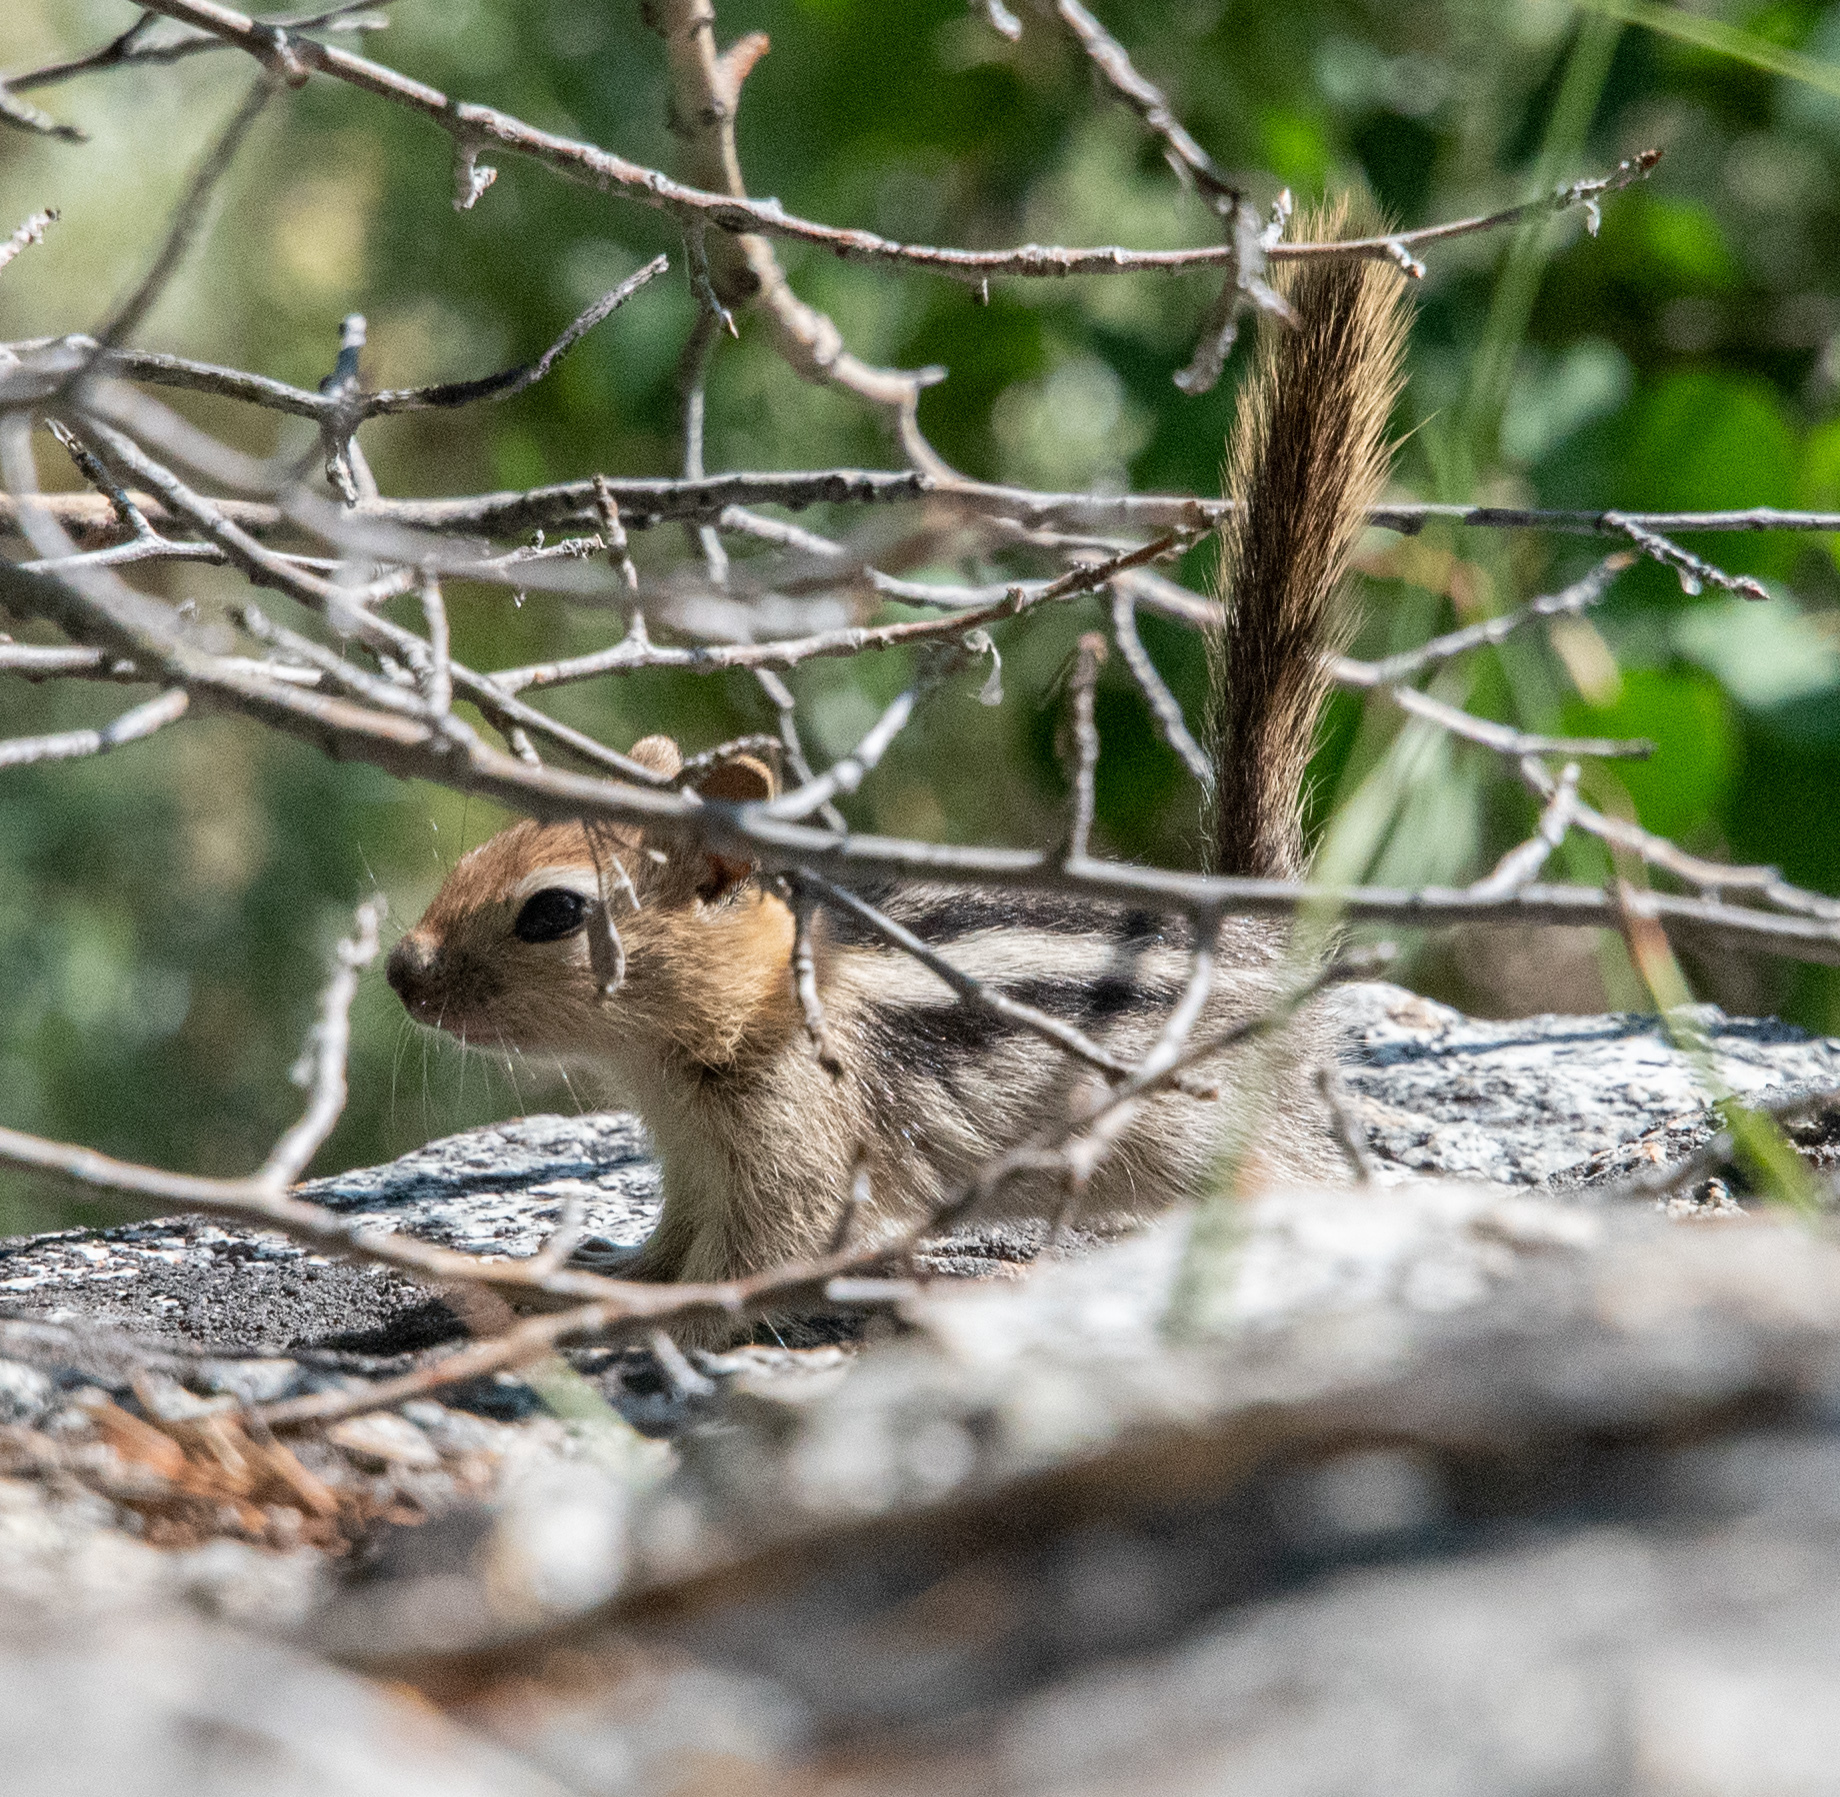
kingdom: Animalia
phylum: Chordata
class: Mammalia
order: Rodentia
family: Sciuridae
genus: Callospermophilus
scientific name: Callospermophilus lateralis
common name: Golden-mantled ground squirrel
